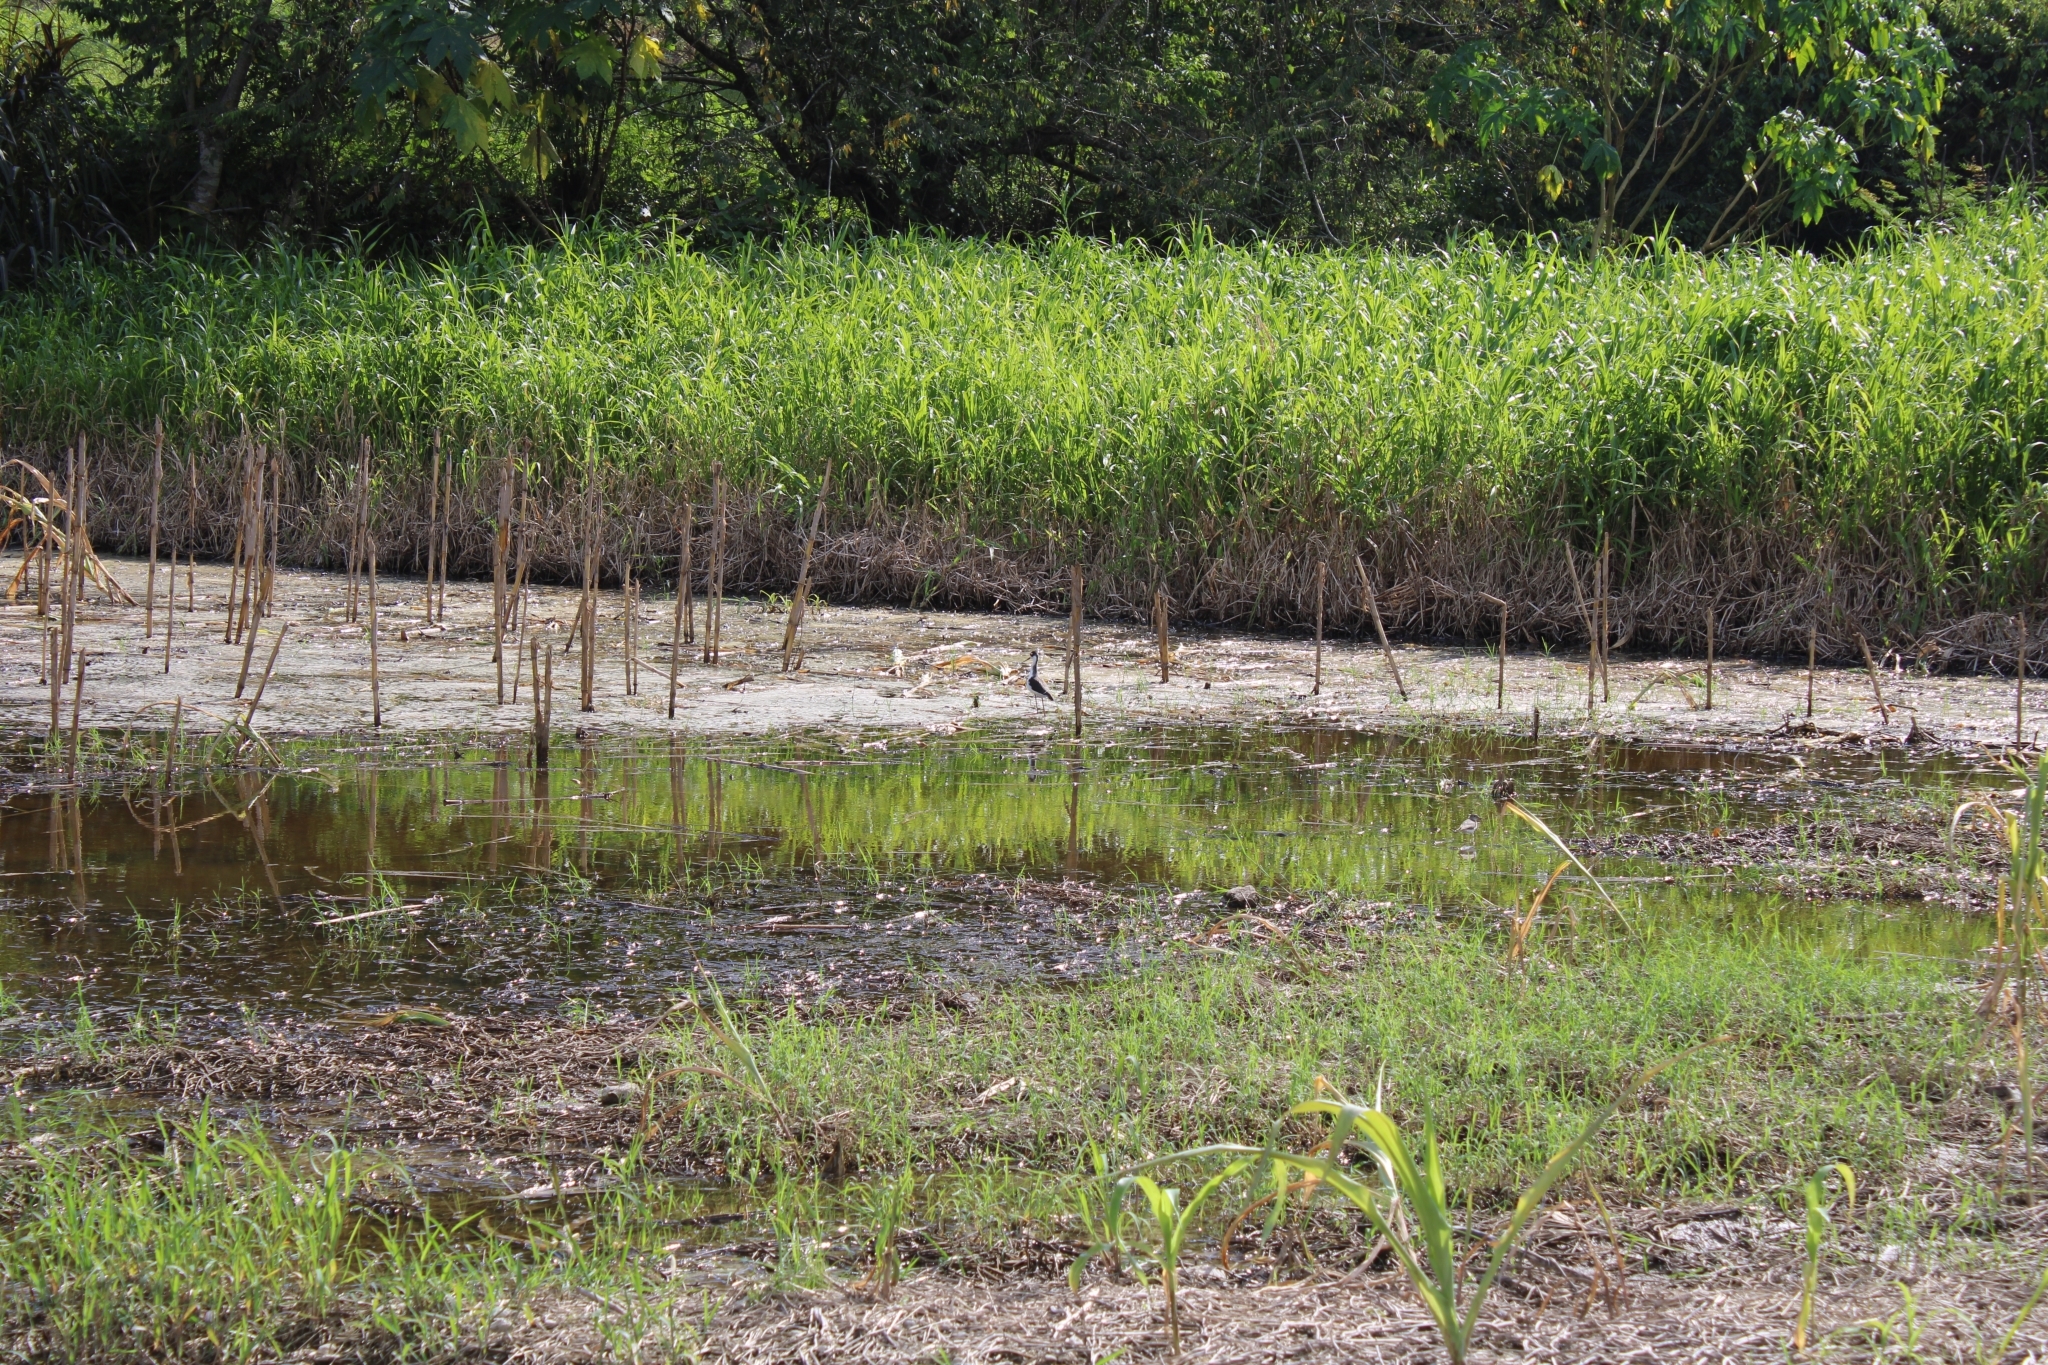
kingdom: Animalia
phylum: Chordata
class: Aves
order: Charadriiformes
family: Recurvirostridae
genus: Himantopus
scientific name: Himantopus mexicanus
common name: Black-necked stilt
